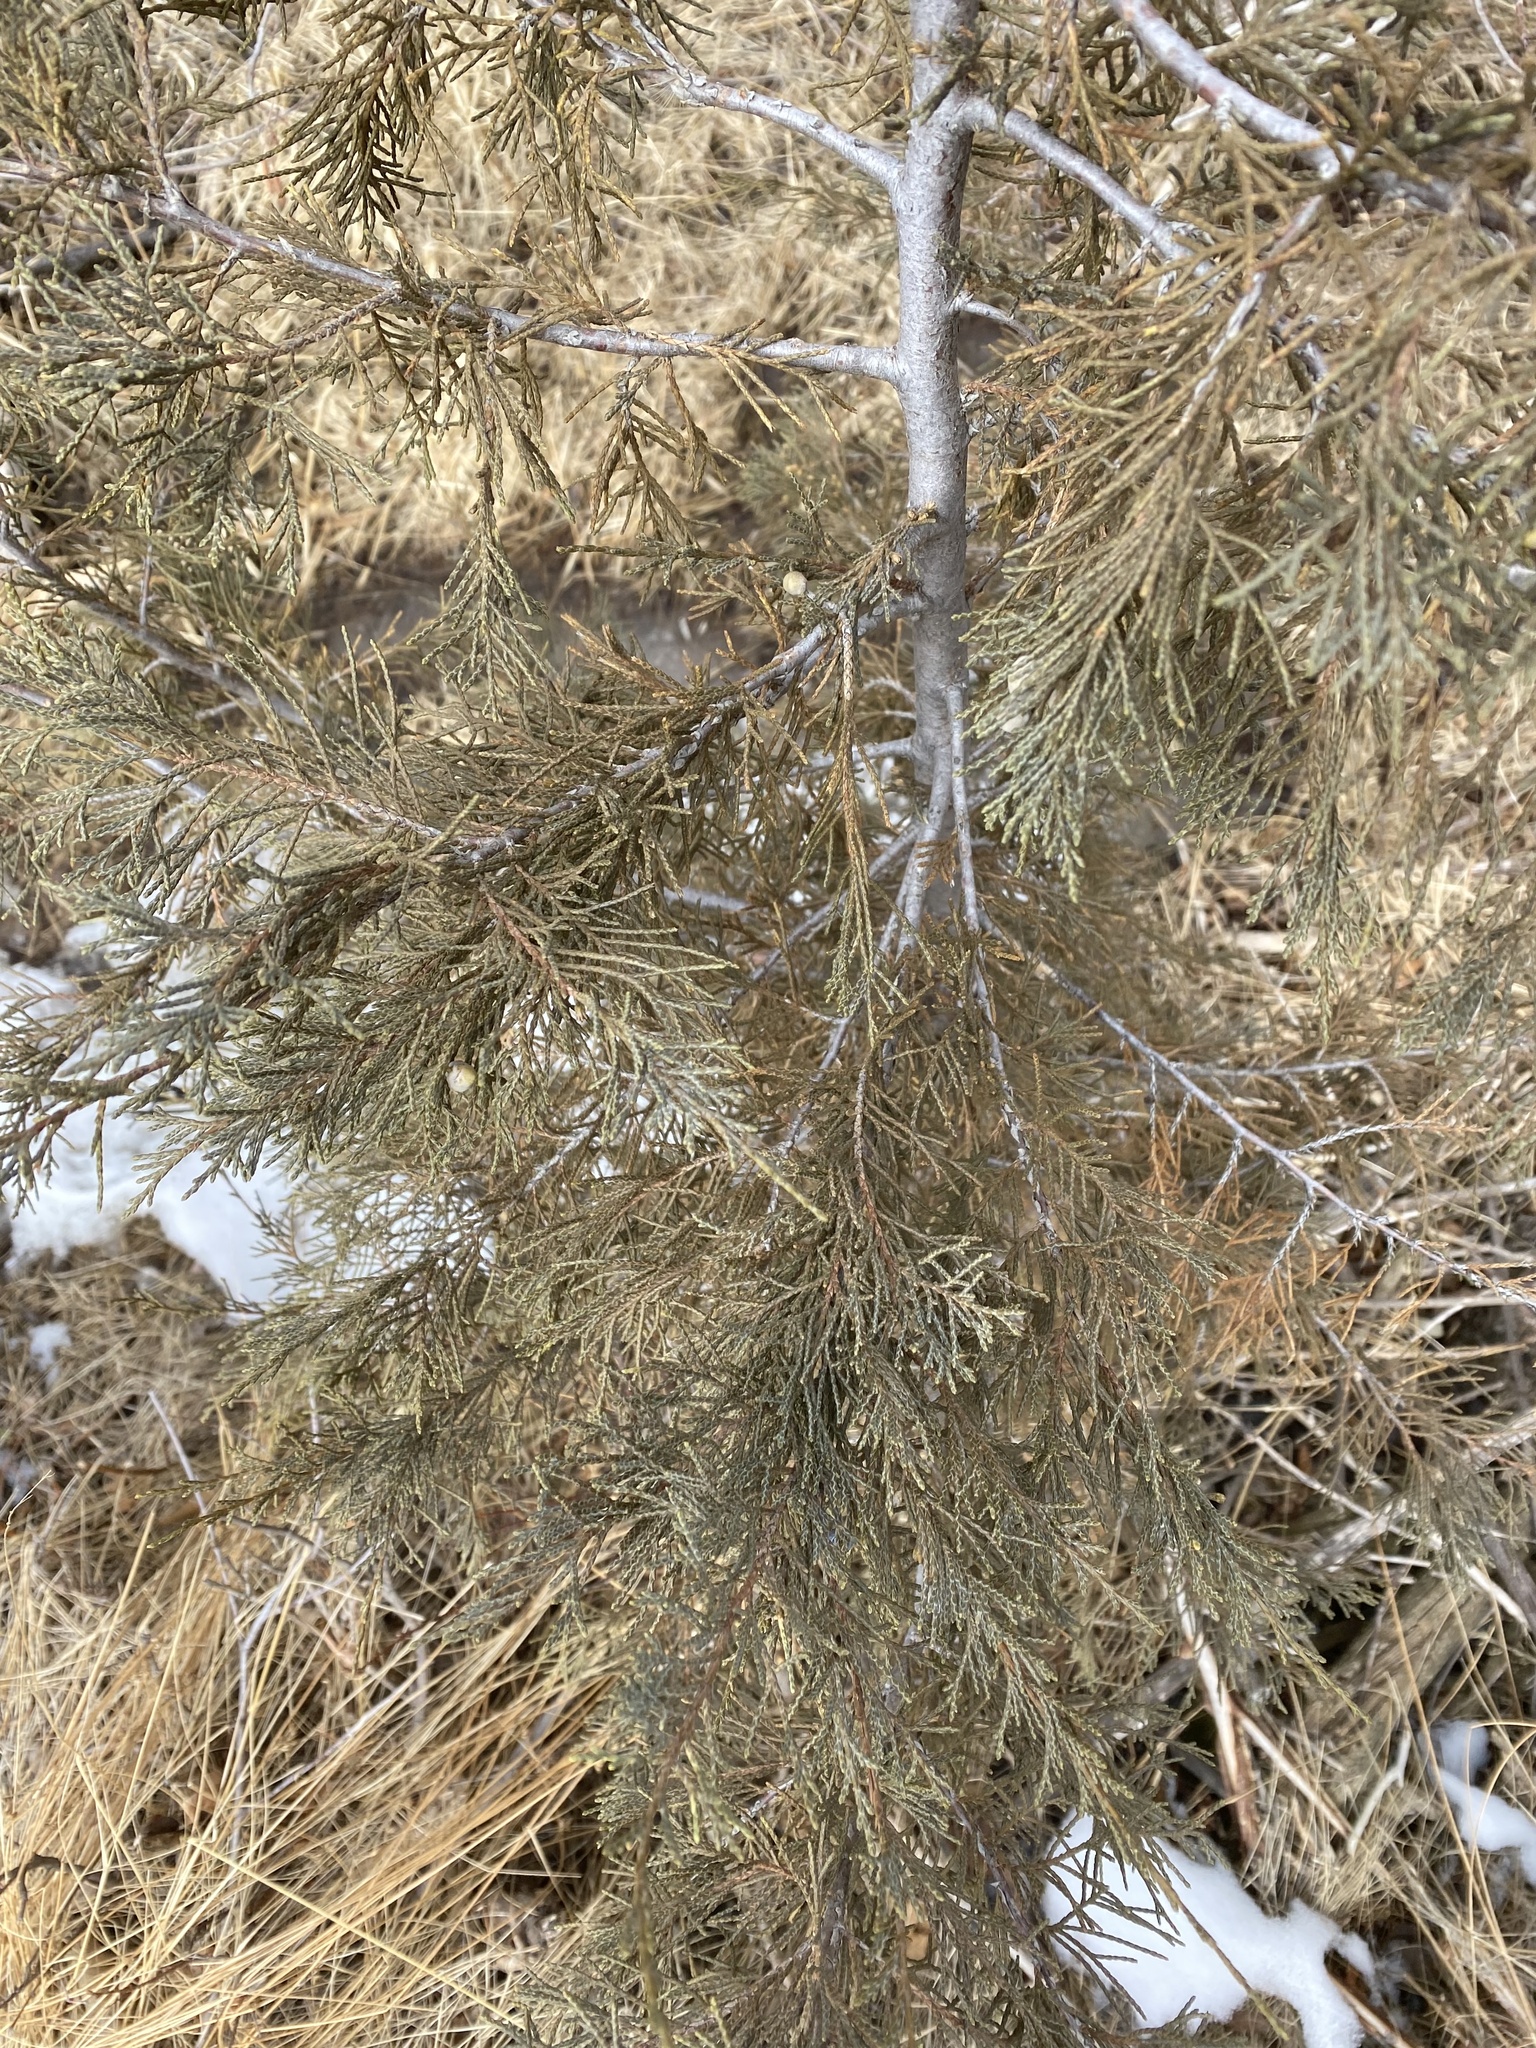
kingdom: Plantae
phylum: Tracheophyta
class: Pinopsida
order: Pinales
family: Cupressaceae
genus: Juniperus
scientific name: Juniperus scopulorum
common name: Rocky mountain juniper
